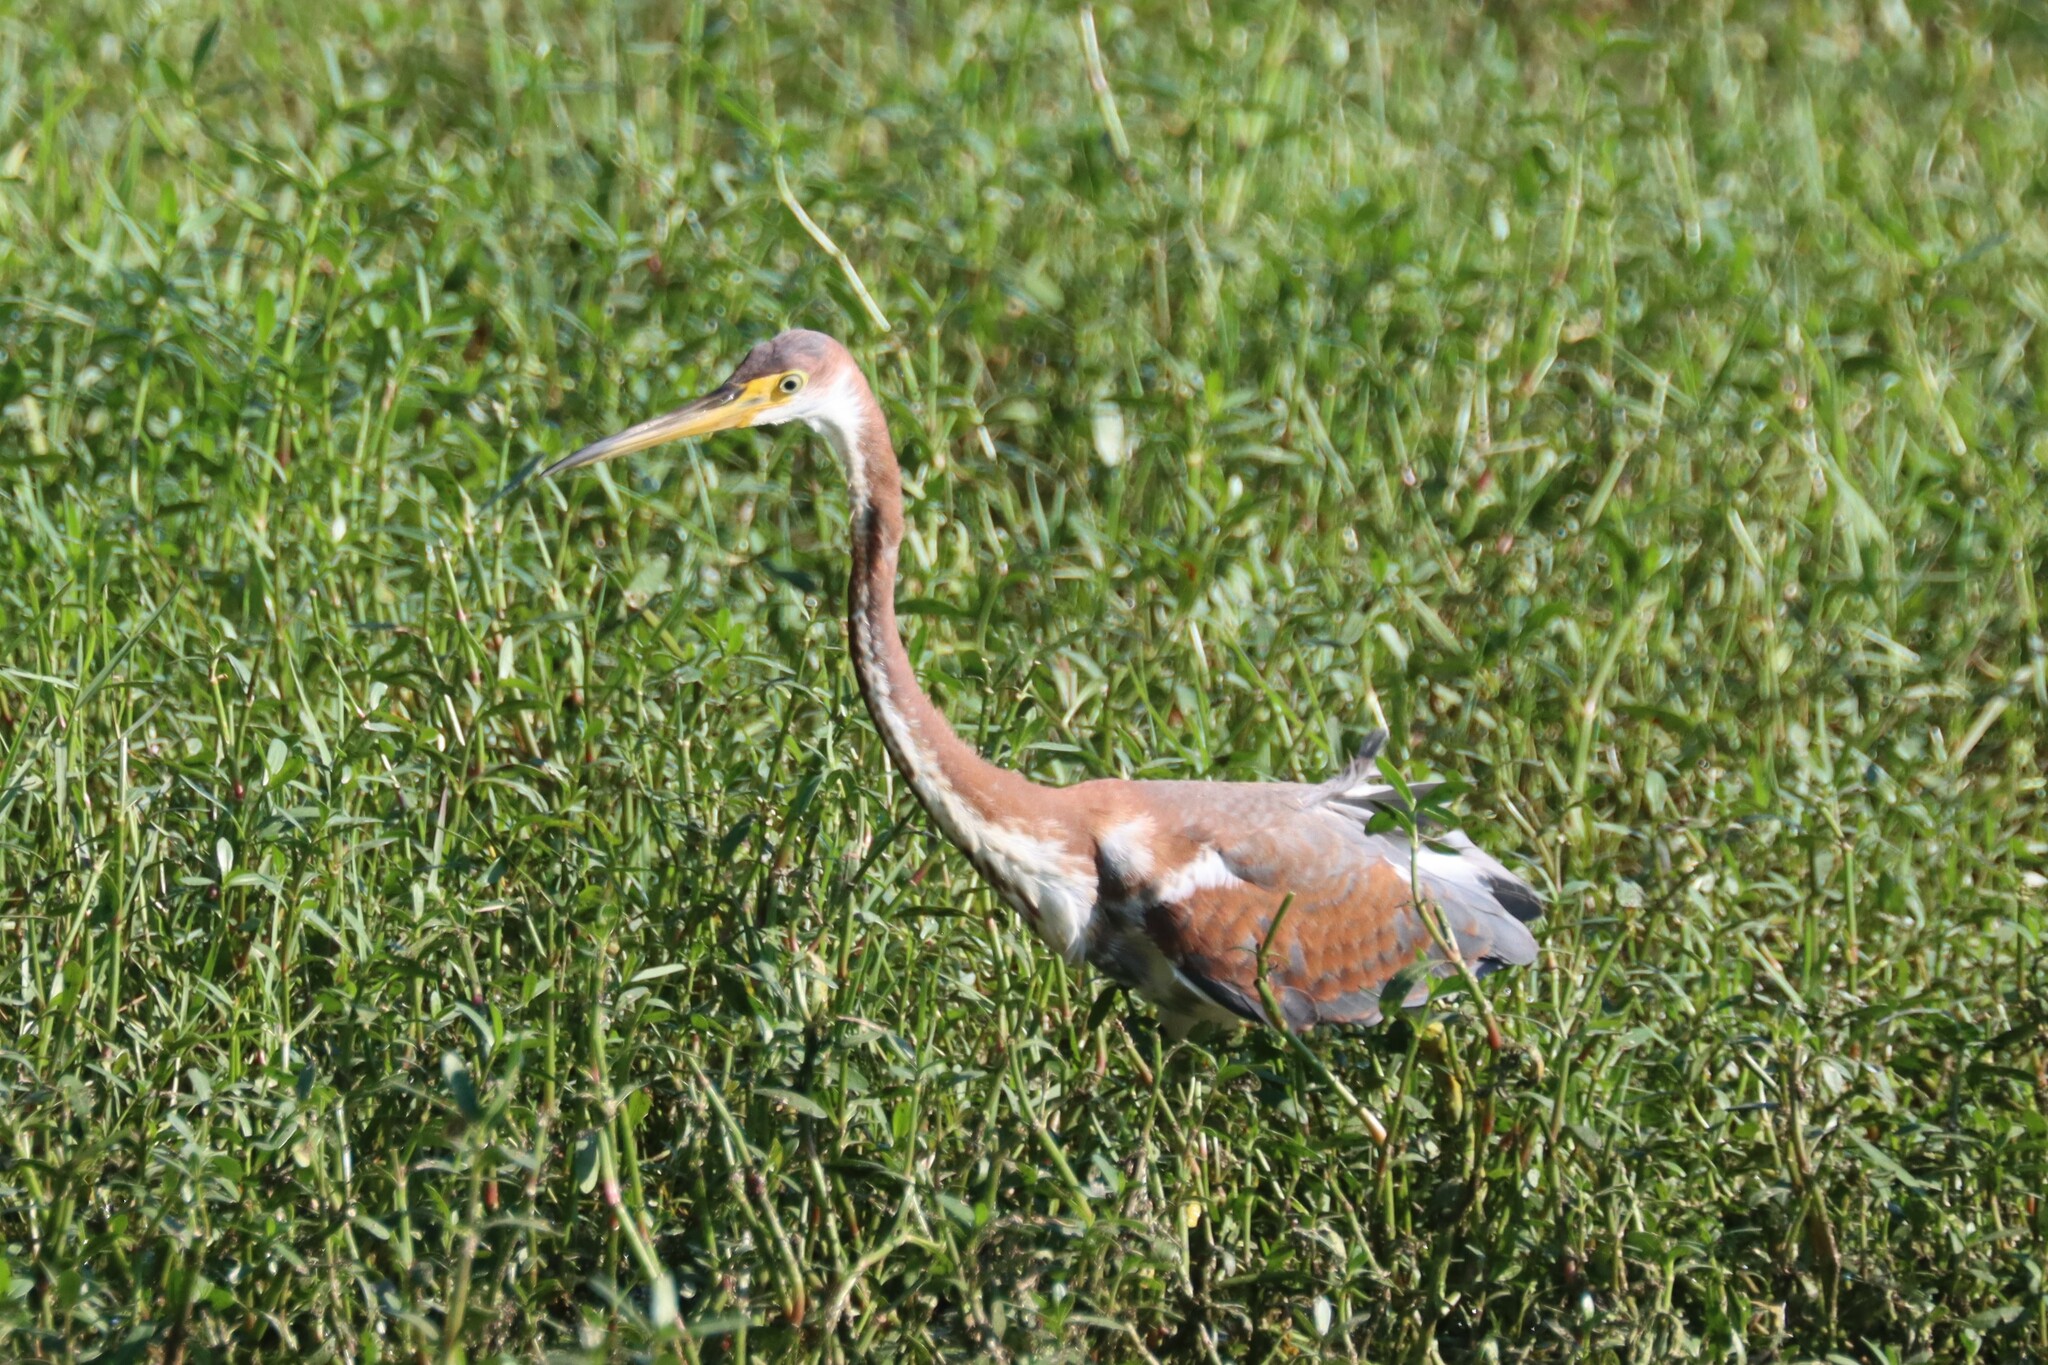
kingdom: Animalia
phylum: Chordata
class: Aves
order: Pelecaniformes
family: Ardeidae
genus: Egretta
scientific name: Egretta tricolor
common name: Tricolored heron
